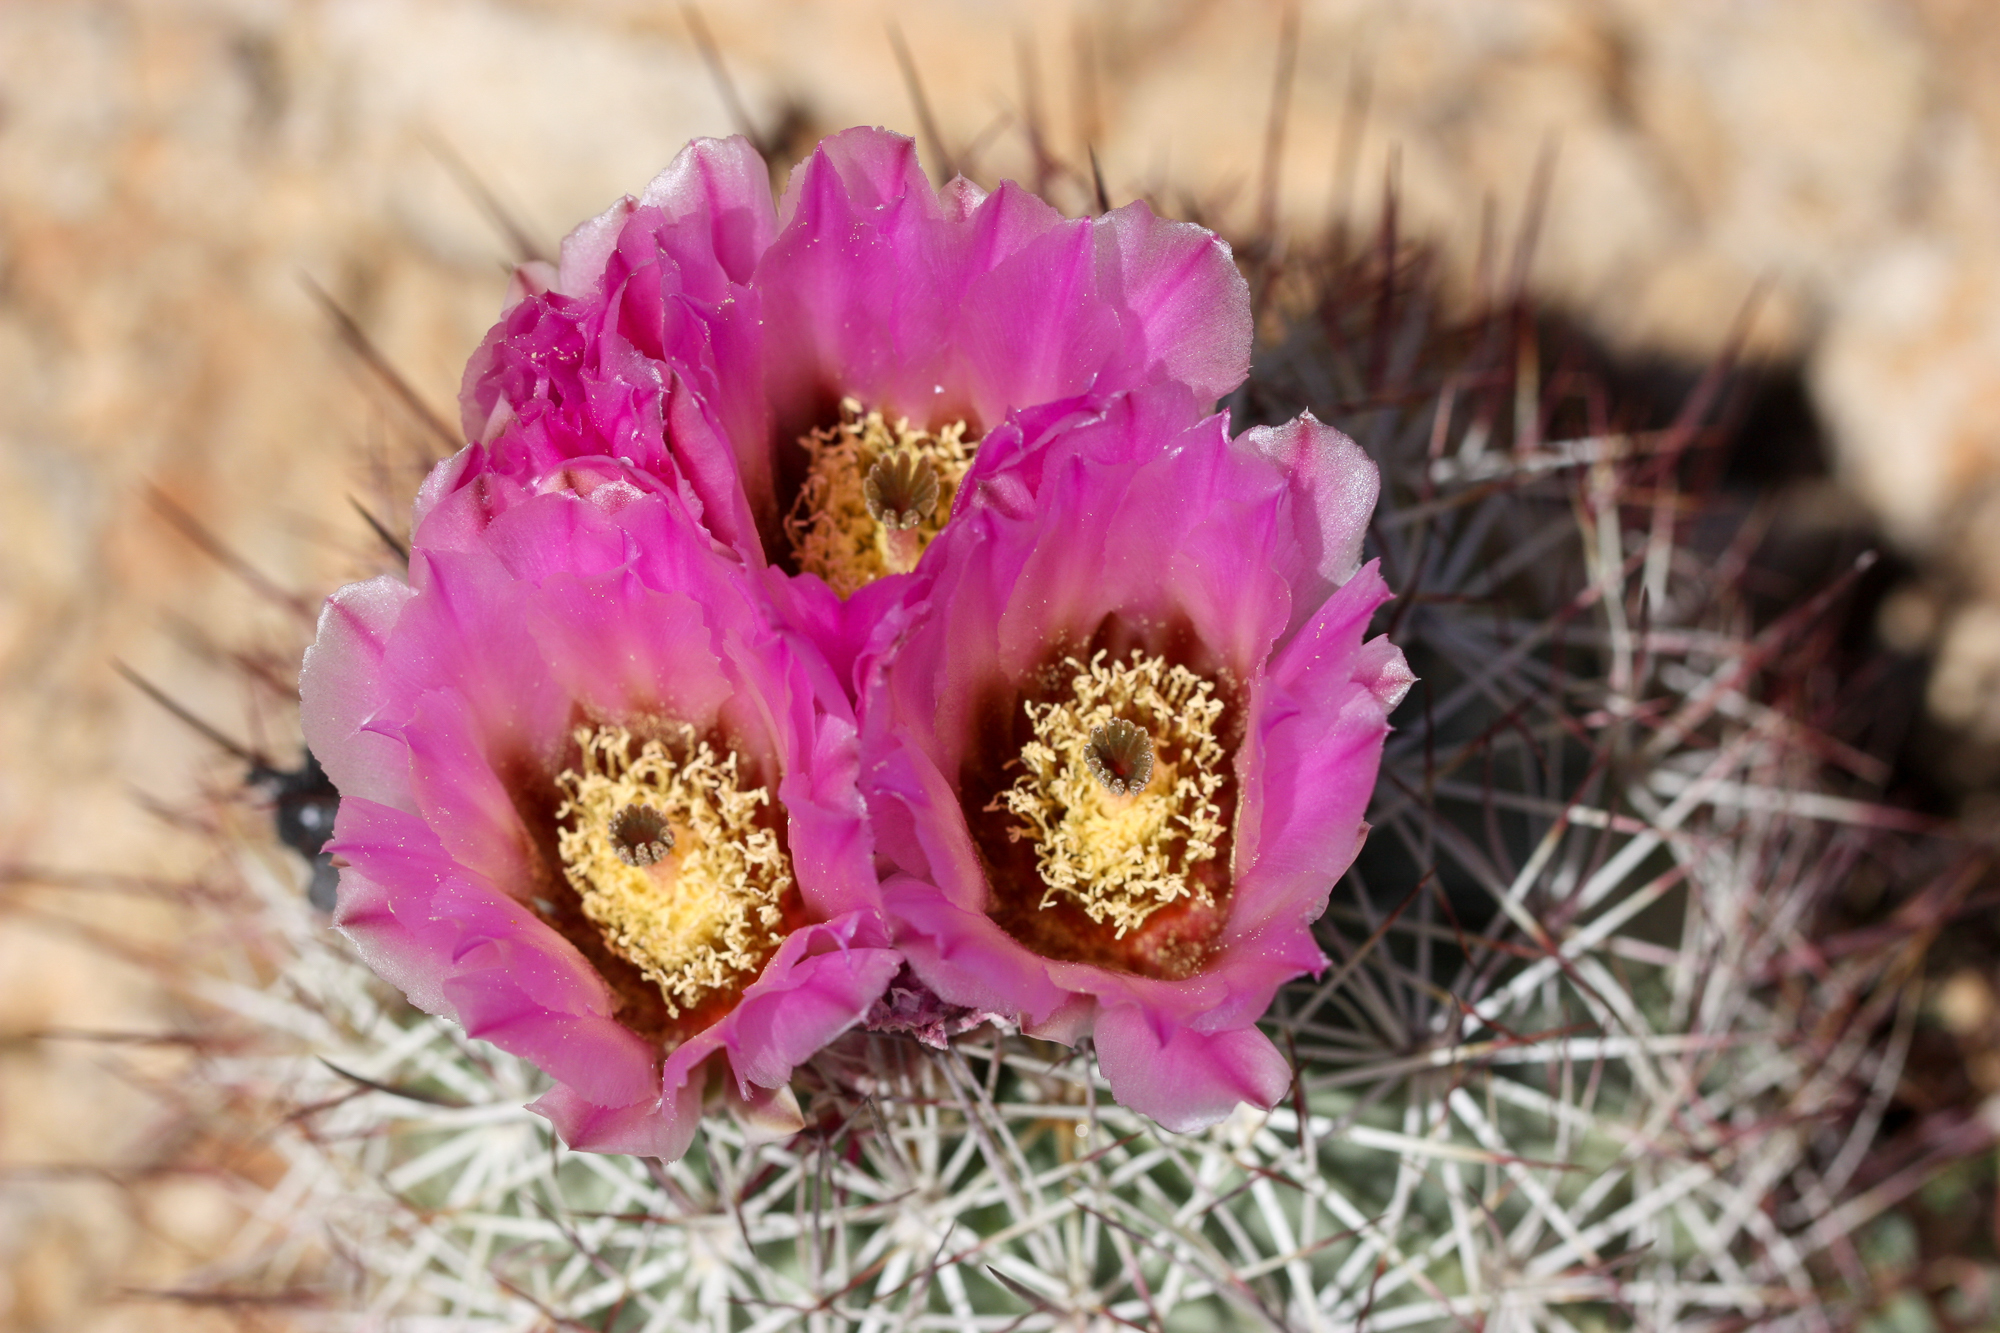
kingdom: Plantae
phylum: Tracheophyta
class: Magnoliopsida
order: Caryophyllales
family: Cactaceae
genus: Sclerocactus
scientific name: Sclerocactus johnsonii
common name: Eight-spine fishhook cactus
